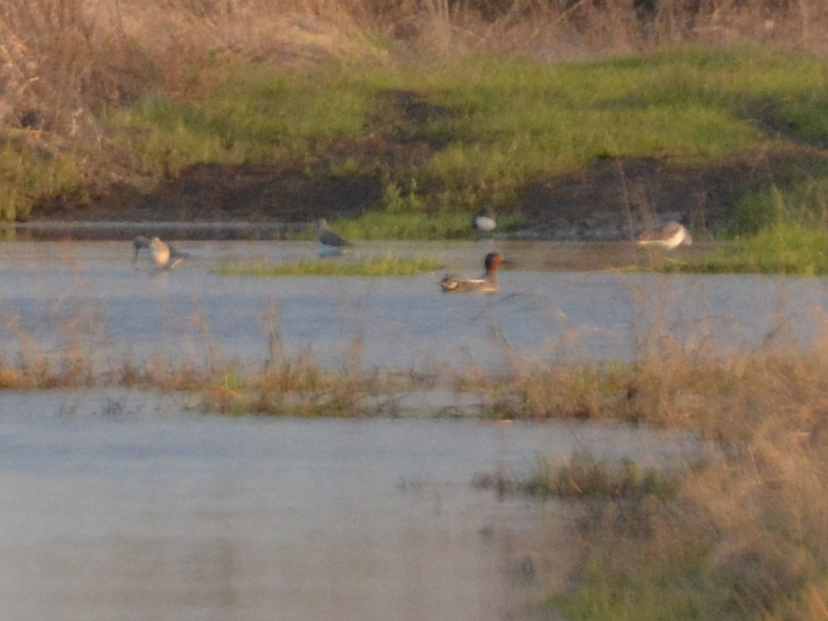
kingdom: Animalia
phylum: Chordata
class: Aves
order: Anseriformes
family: Anatidae
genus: Anas
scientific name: Anas crecca
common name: Eurasian teal
